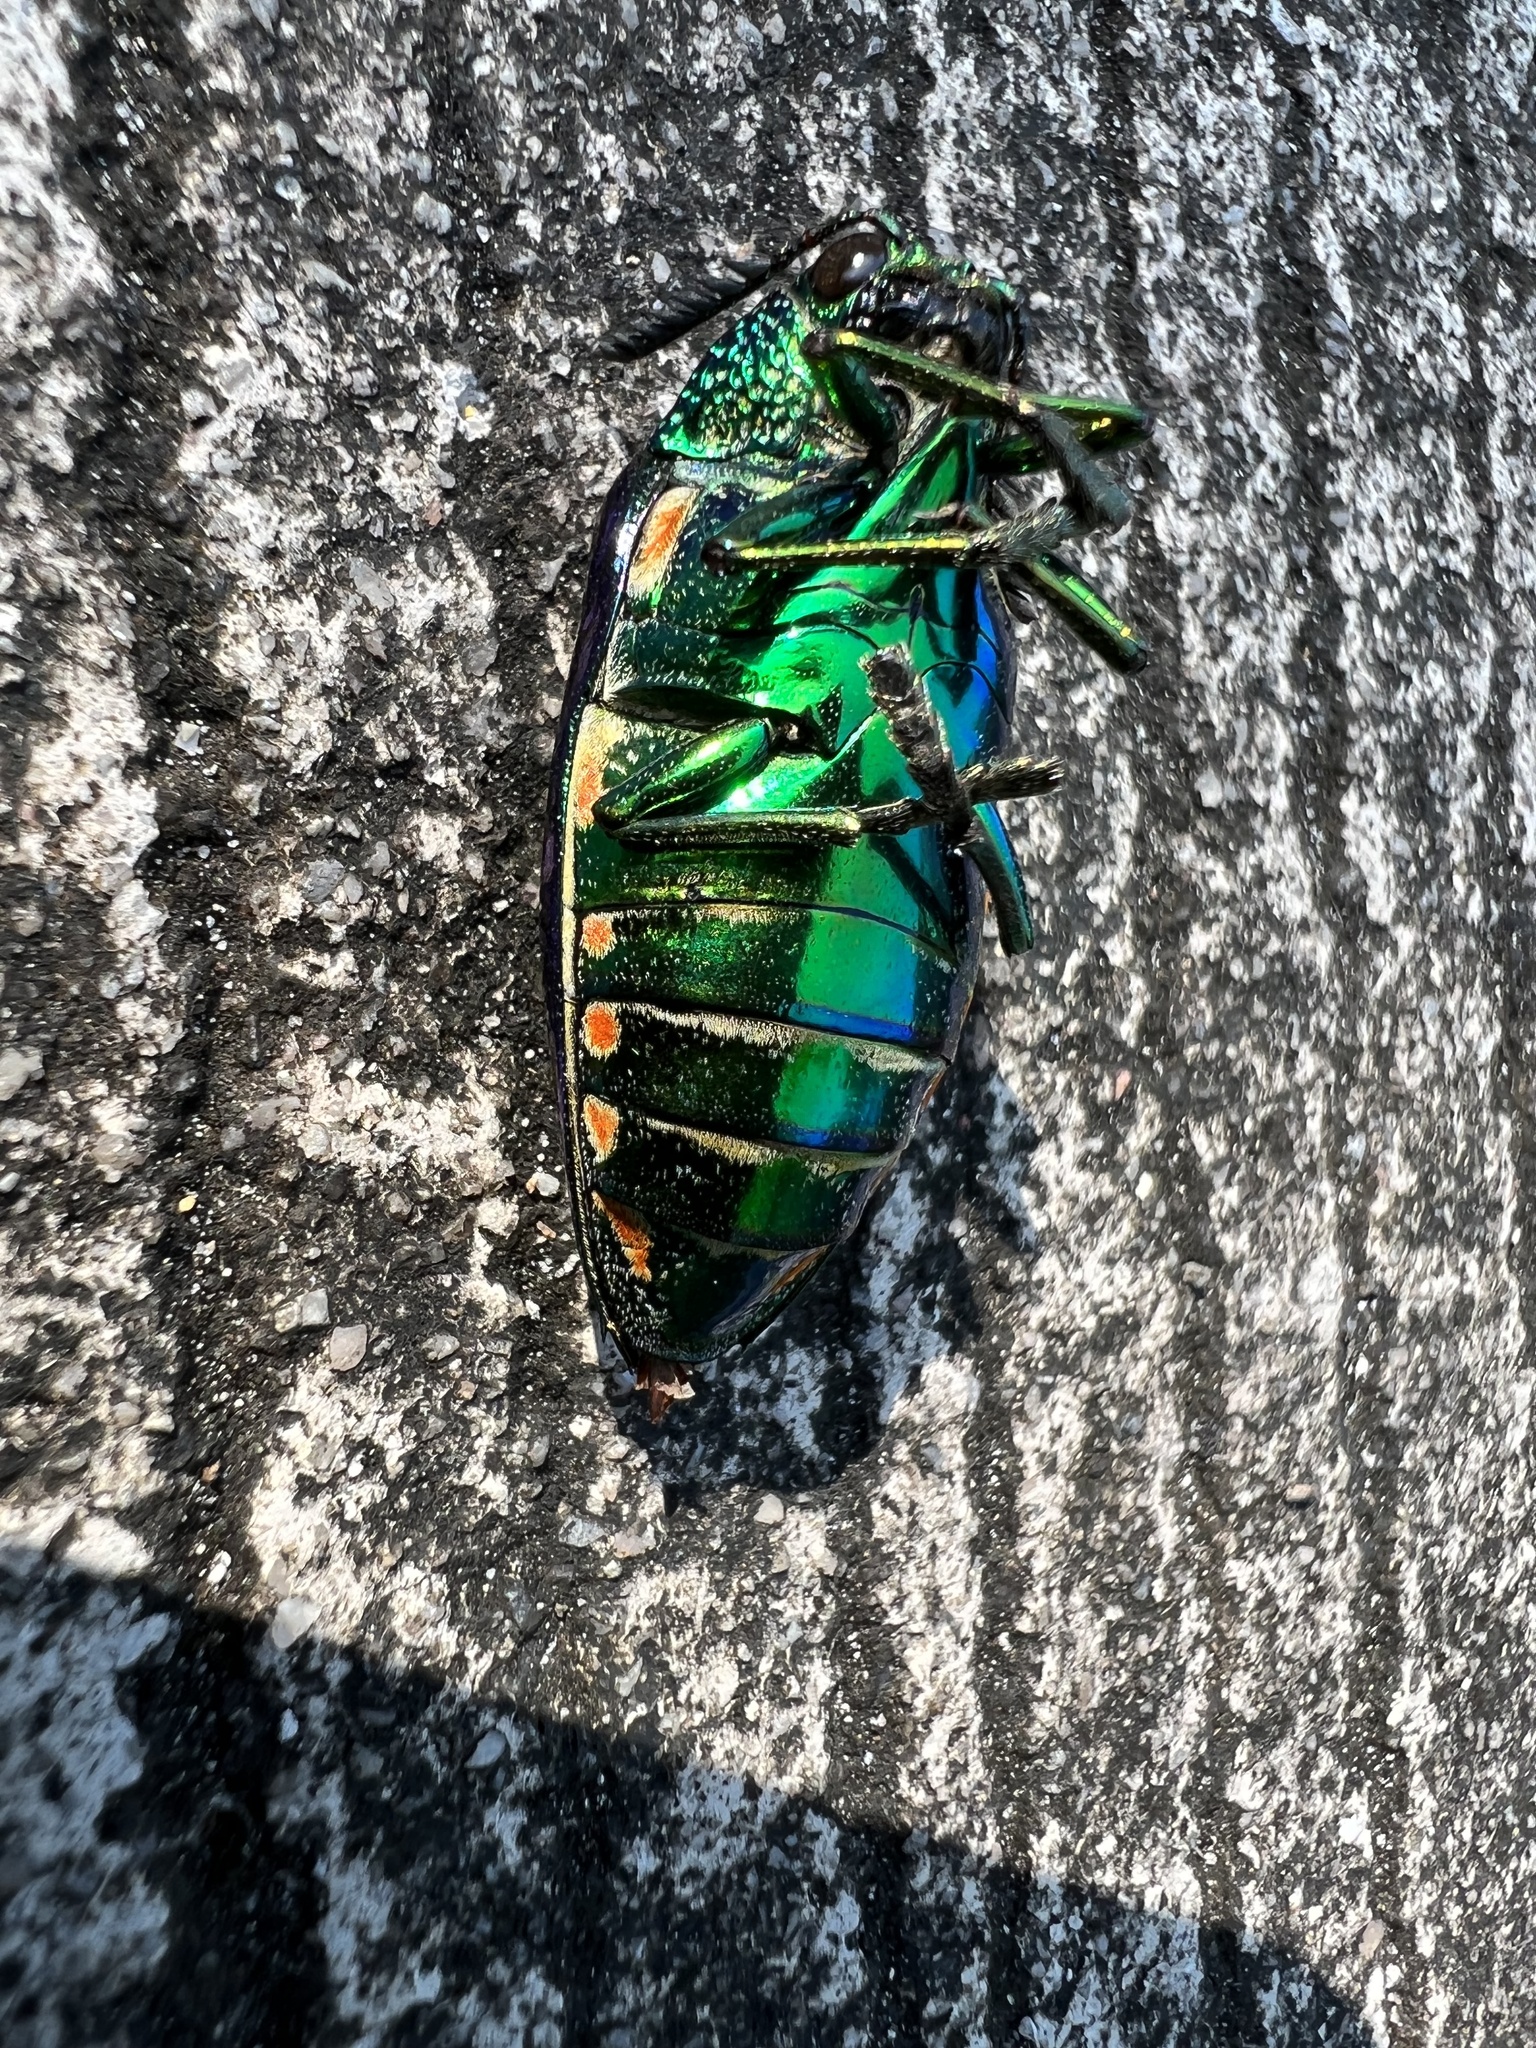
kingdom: Animalia
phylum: Arthropoda
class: Insecta
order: Coleoptera
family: Buprestidae
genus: Sternocera
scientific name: Sternocera aequisignata
